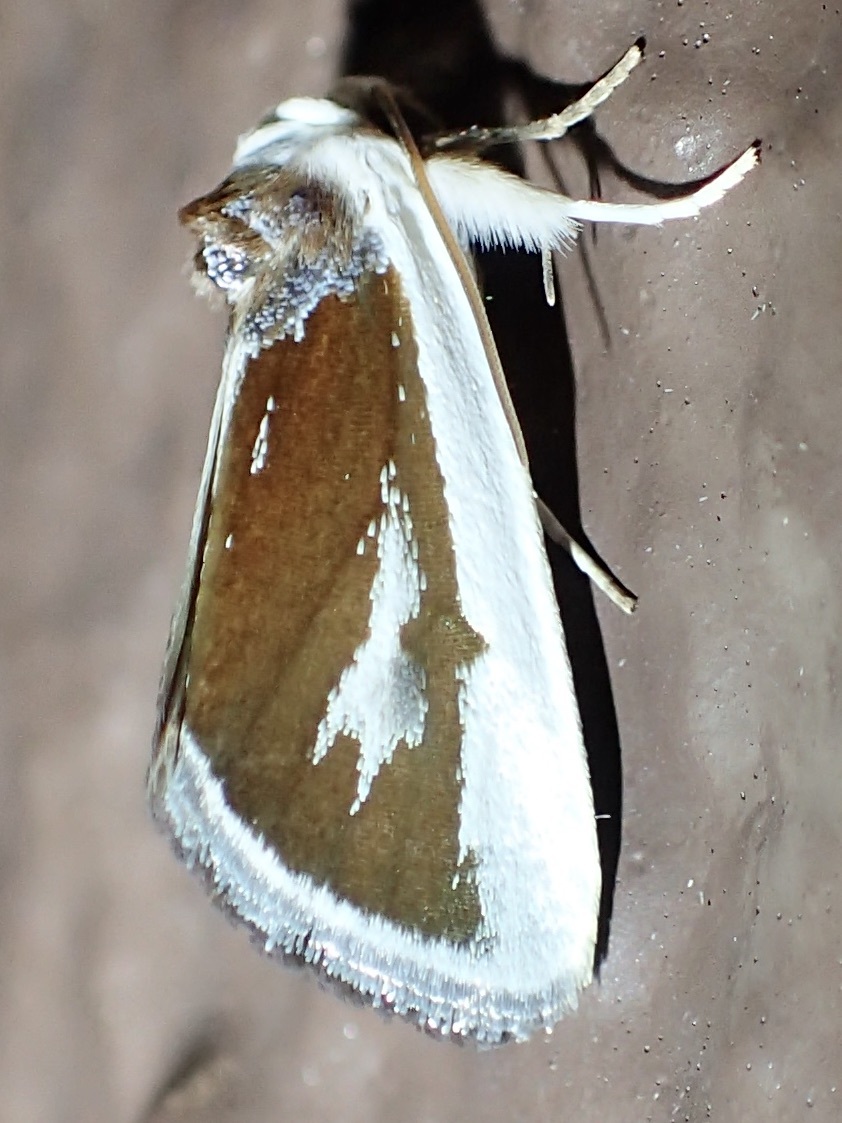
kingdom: Animalia
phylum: Arthropoda
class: Insecta
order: Lepidoptera
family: Noctuidae
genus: Neumoegenia
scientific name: Neumoegenia poetica
